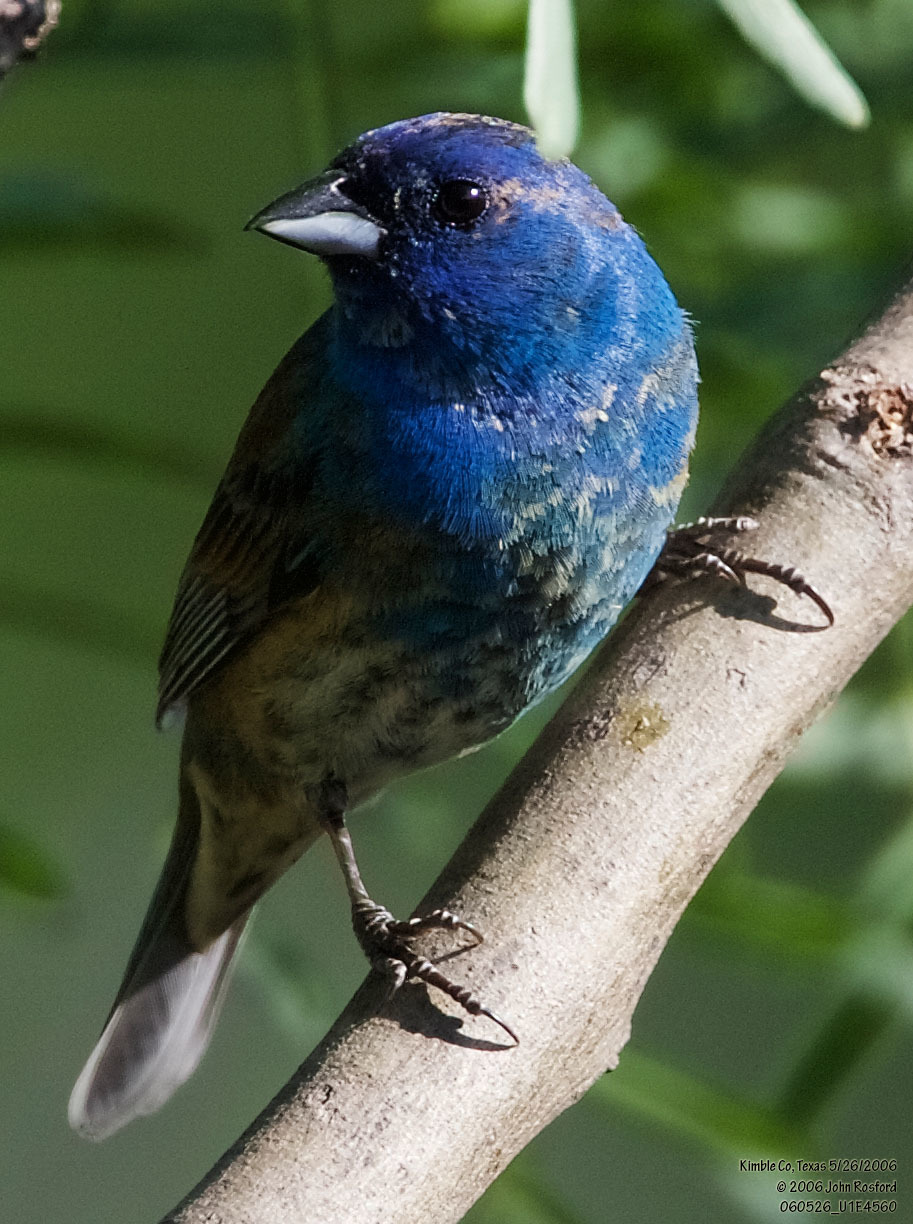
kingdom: Animalia
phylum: Chordata
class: Aves
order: Passeriformes
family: Cardinalidae
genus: Passerina
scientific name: Passerina cyanea
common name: Indigo bunting
